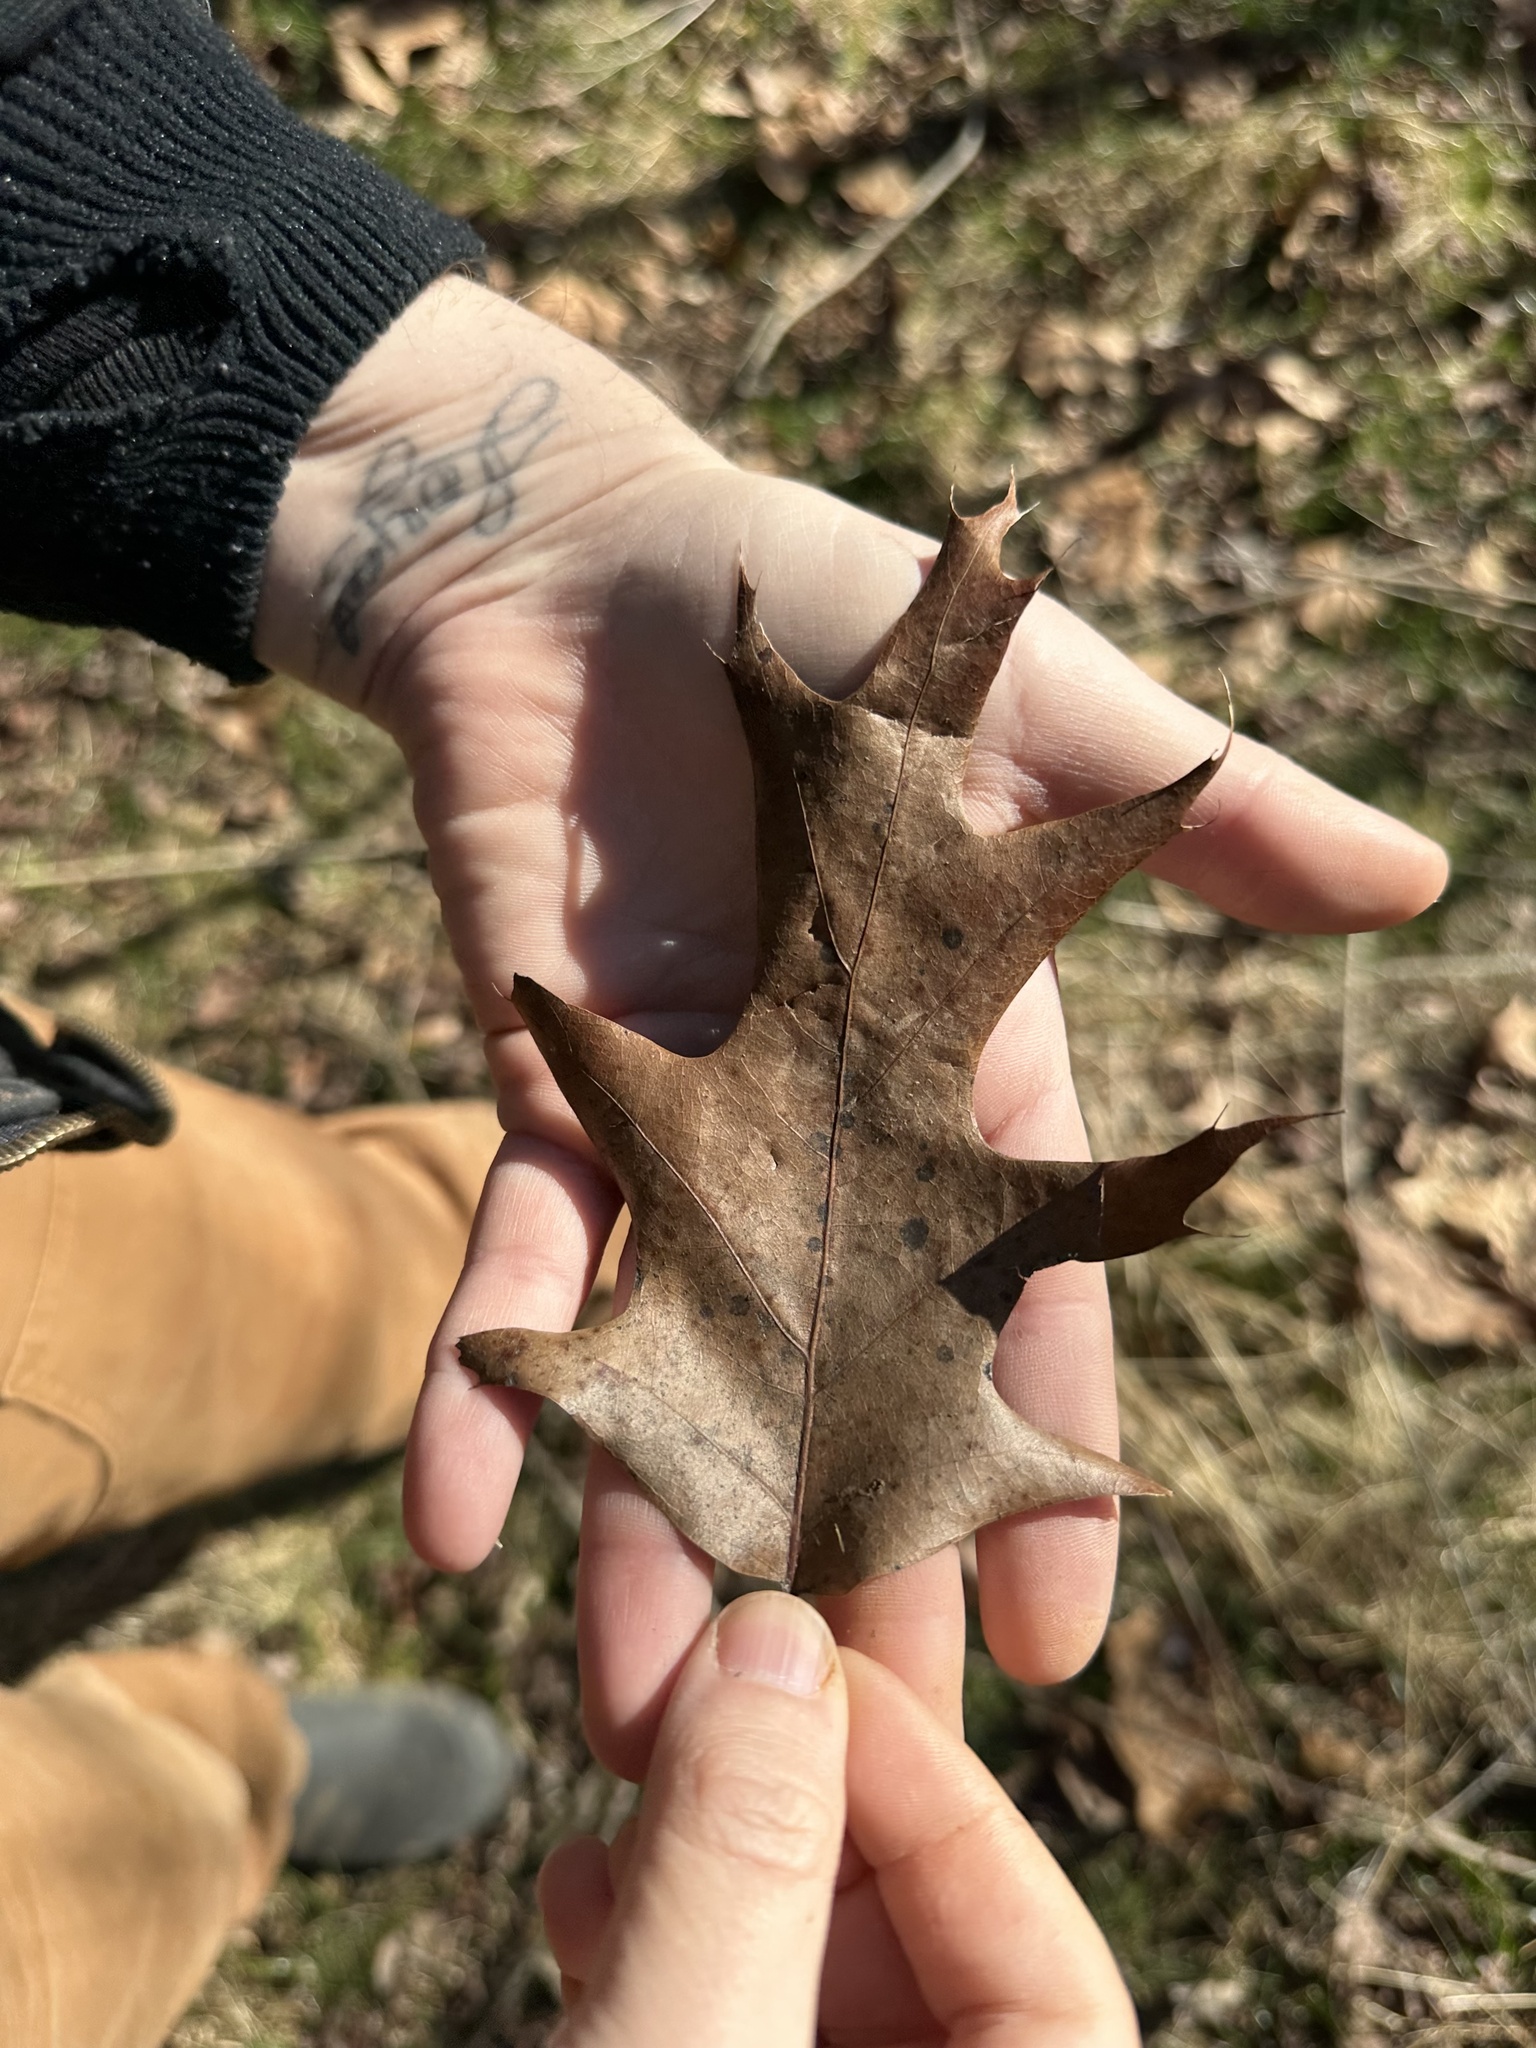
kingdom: Plantae
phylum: Tracheophyta
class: Magnoliopsida
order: Fagales
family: Fagaceae
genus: Quercus
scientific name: Quercus rubra
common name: Red oak
